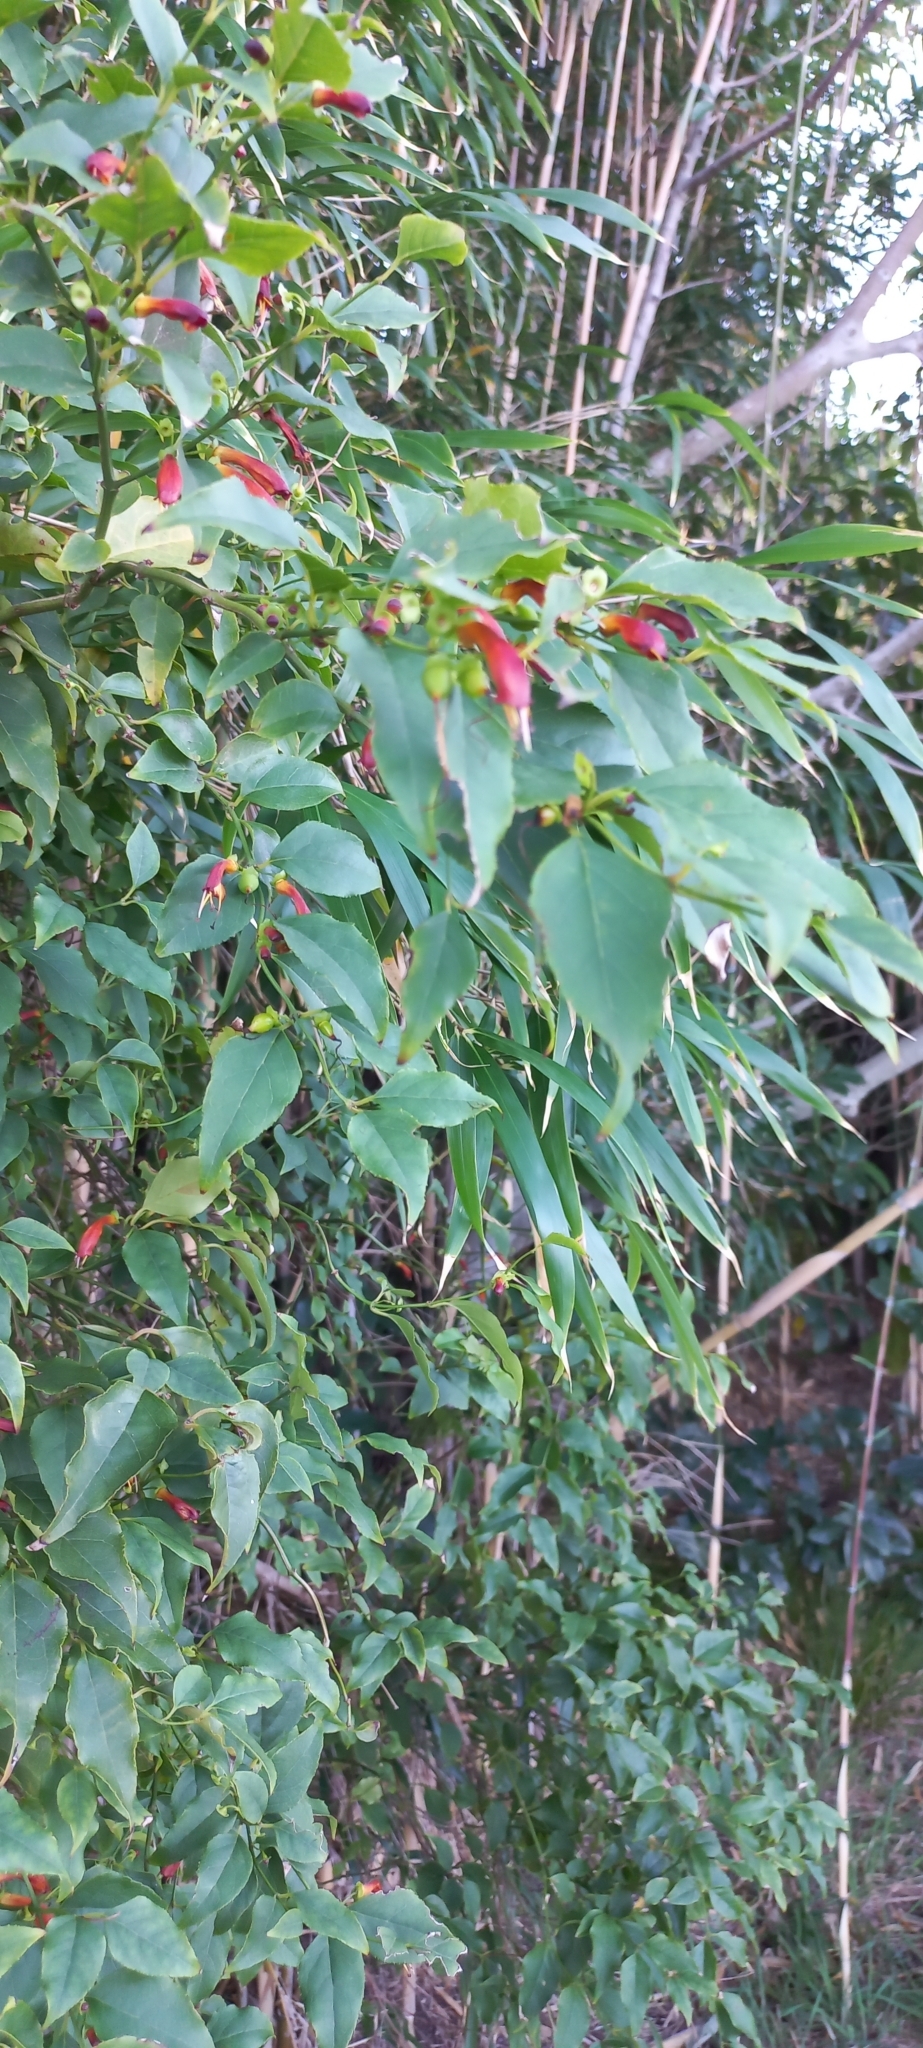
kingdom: Plantae
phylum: Tracheophyta
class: Magnoliopsida
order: Lamiales
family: Stilbaceae
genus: Halleria
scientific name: Halleria lucida
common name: Tree fuschia
